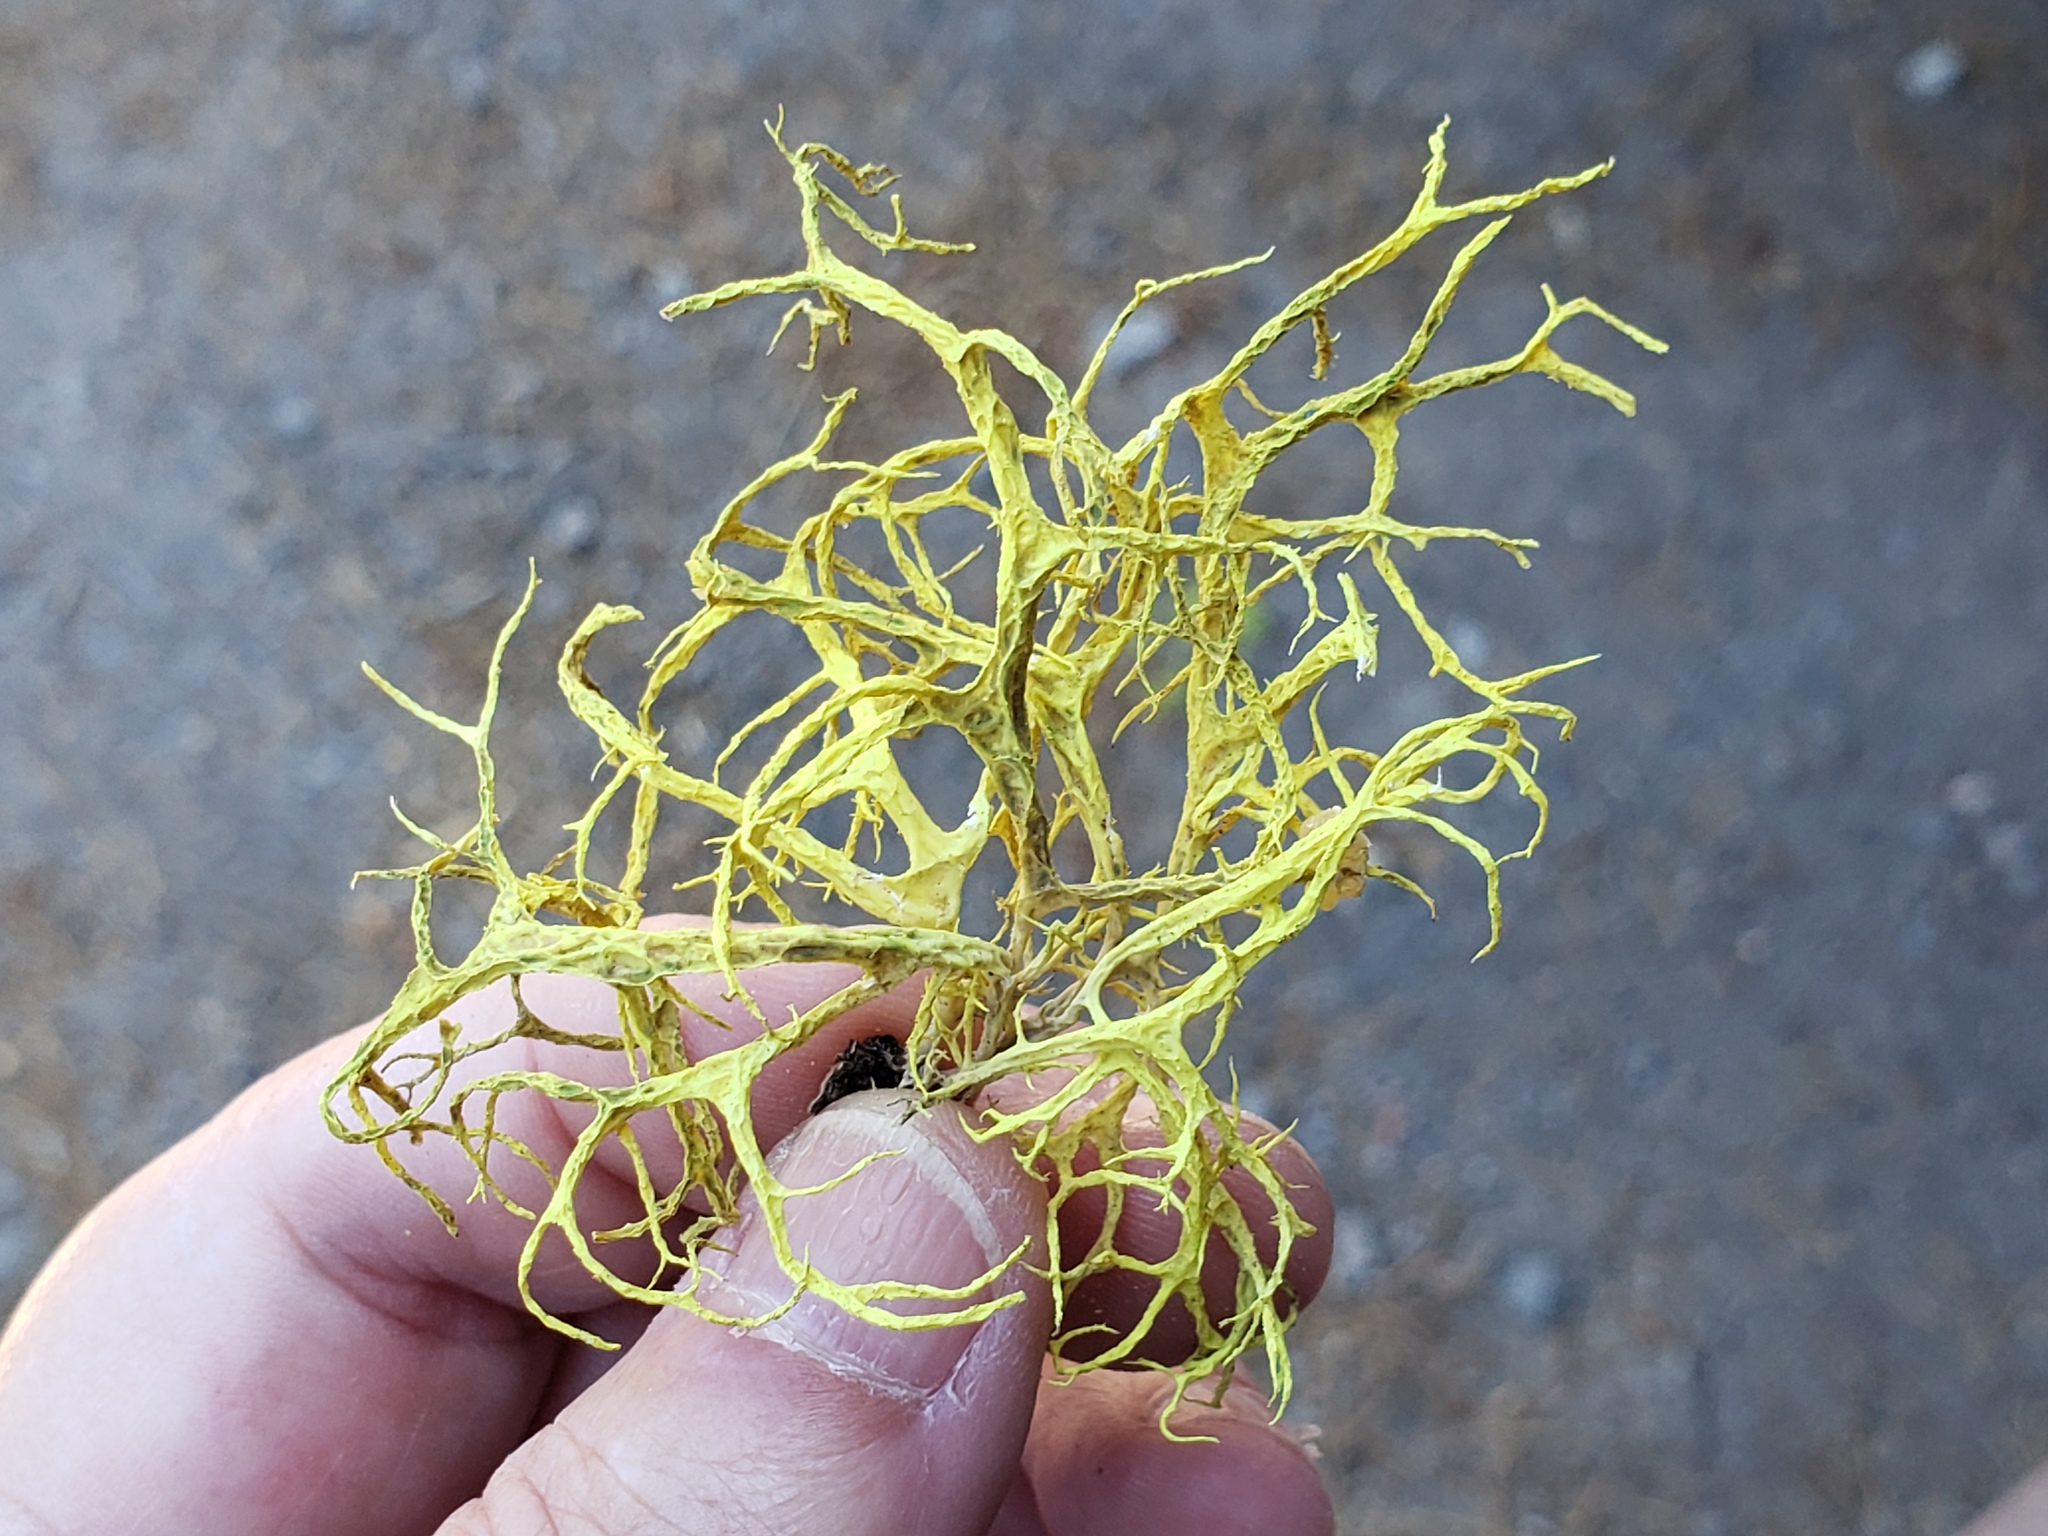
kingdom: Fungi
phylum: Ascomycota
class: Lecanoromycetes
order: Lecanorales
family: Parmeliaceae
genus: Letharia
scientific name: Letharia vulpina
